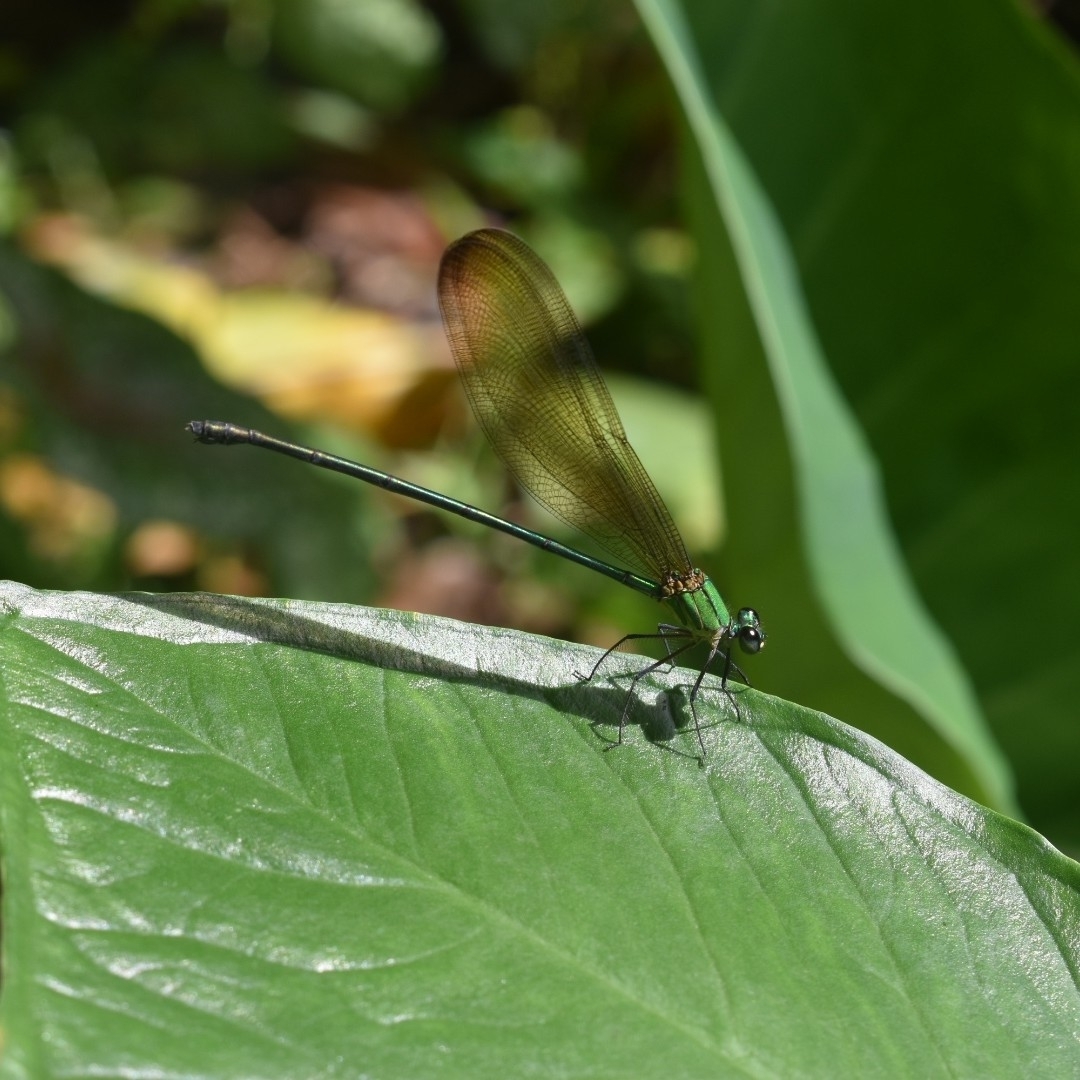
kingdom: Animalia
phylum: Arthropoda
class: Insecta
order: Odonata
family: Calopterygidae
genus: Vestalis
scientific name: Vestalis apicalis
